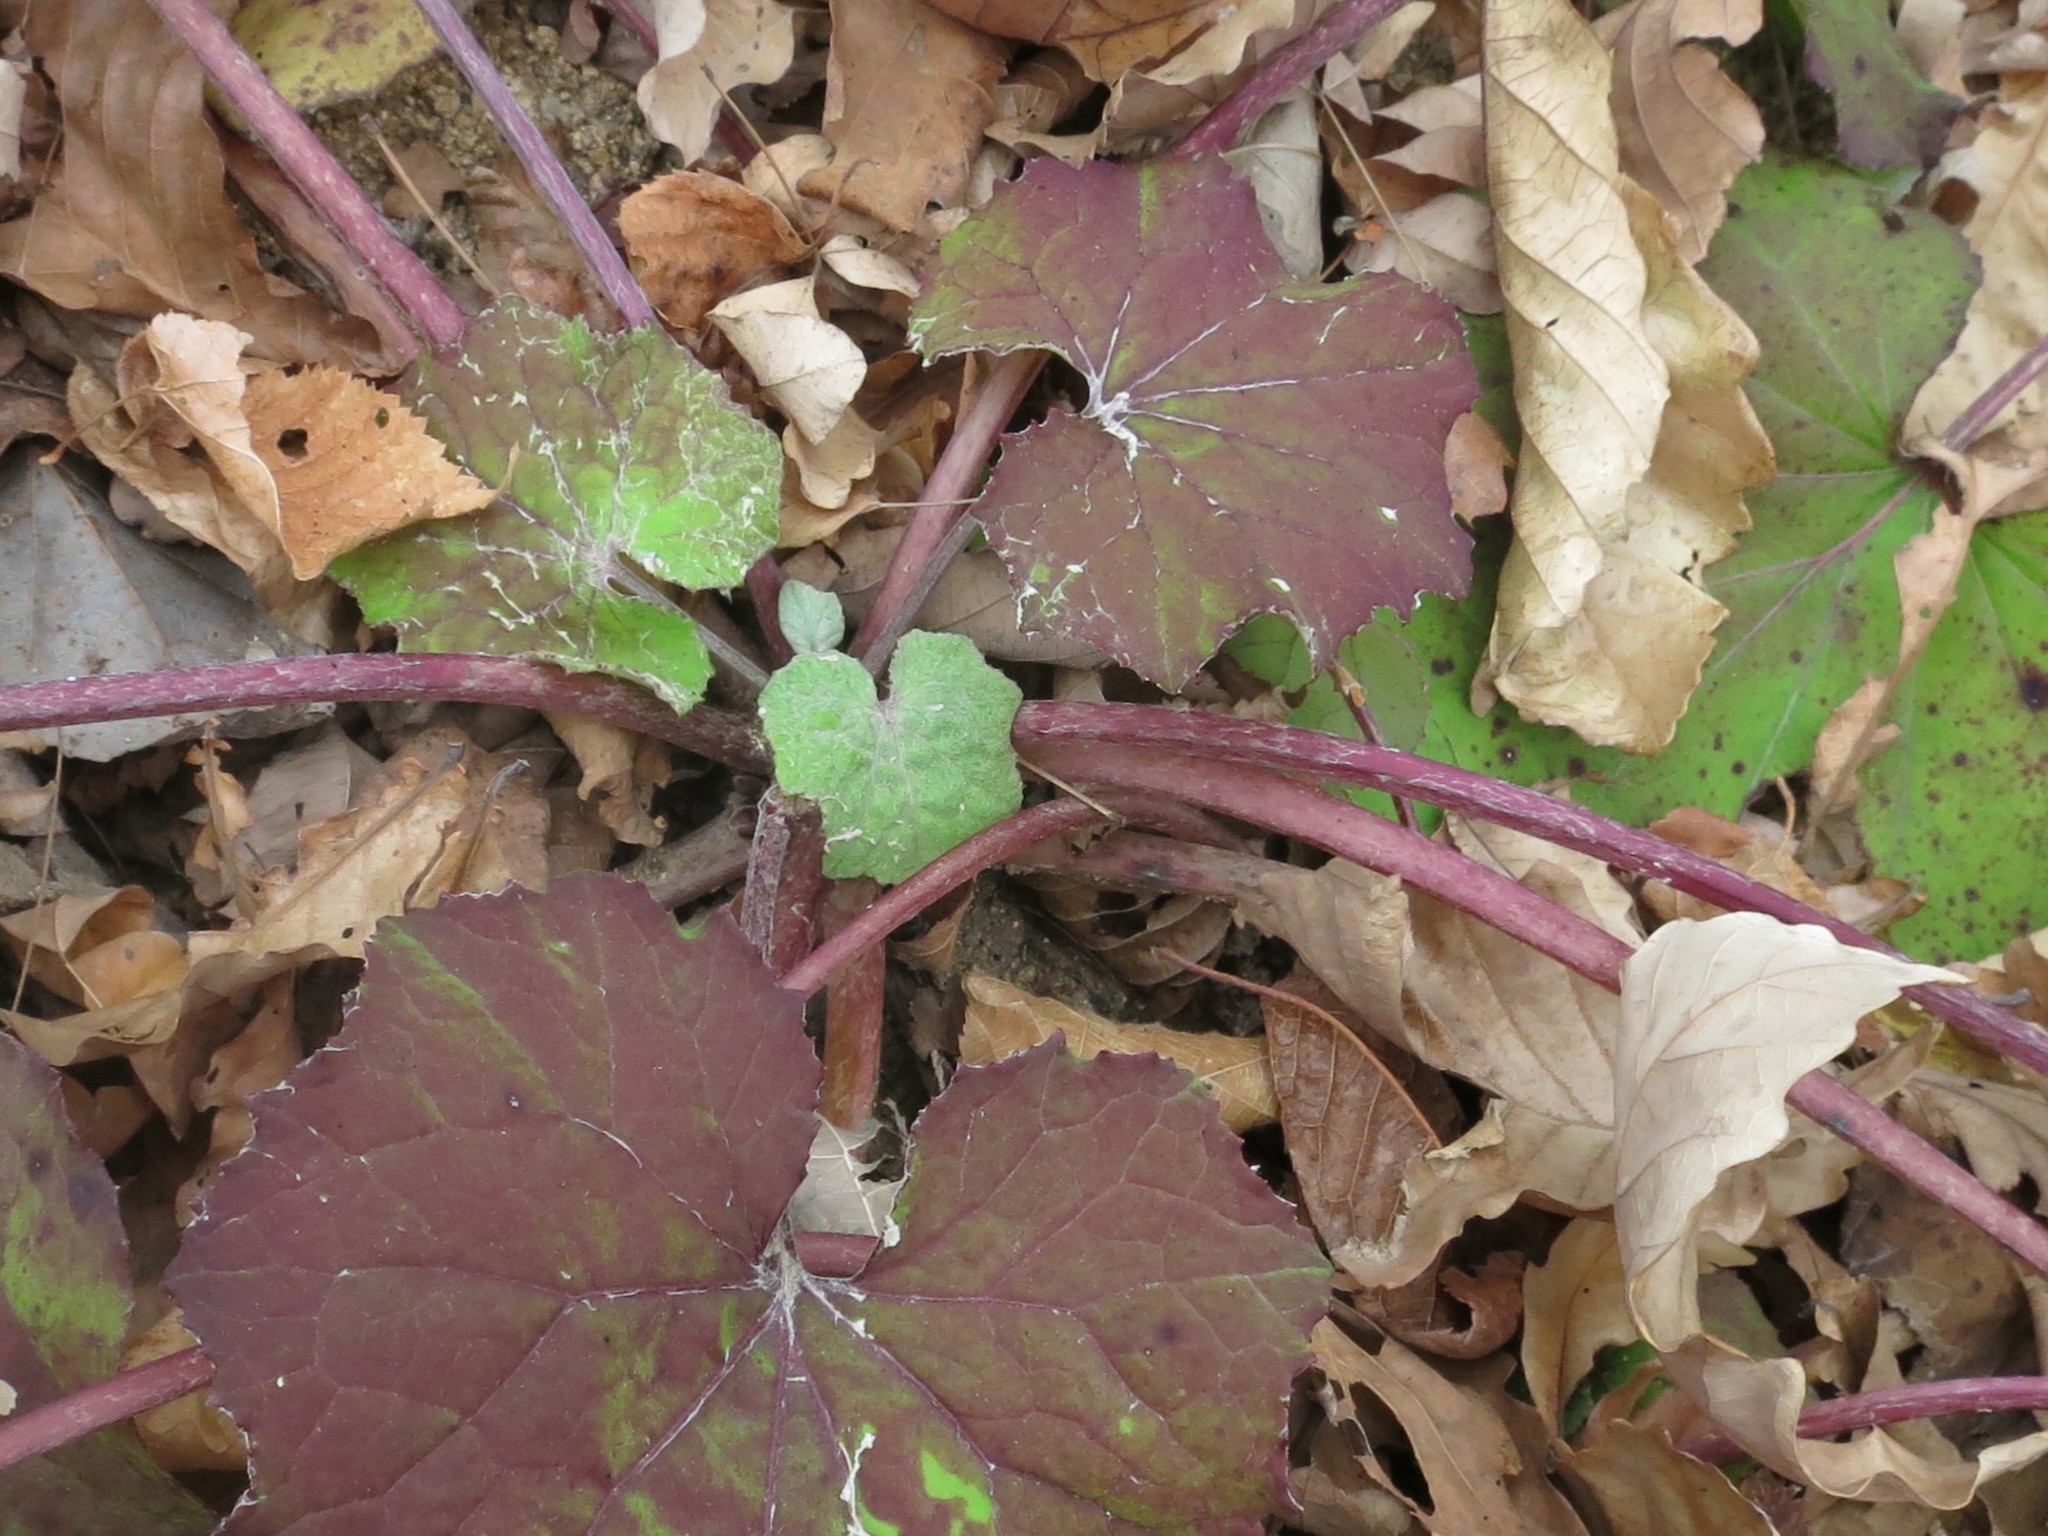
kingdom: Plantae
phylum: Tracheophyta
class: Magnoliopsida
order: Asterales
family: Asteraceae
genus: Tussilago
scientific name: Tussilago farfara
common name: Coltsfoot
